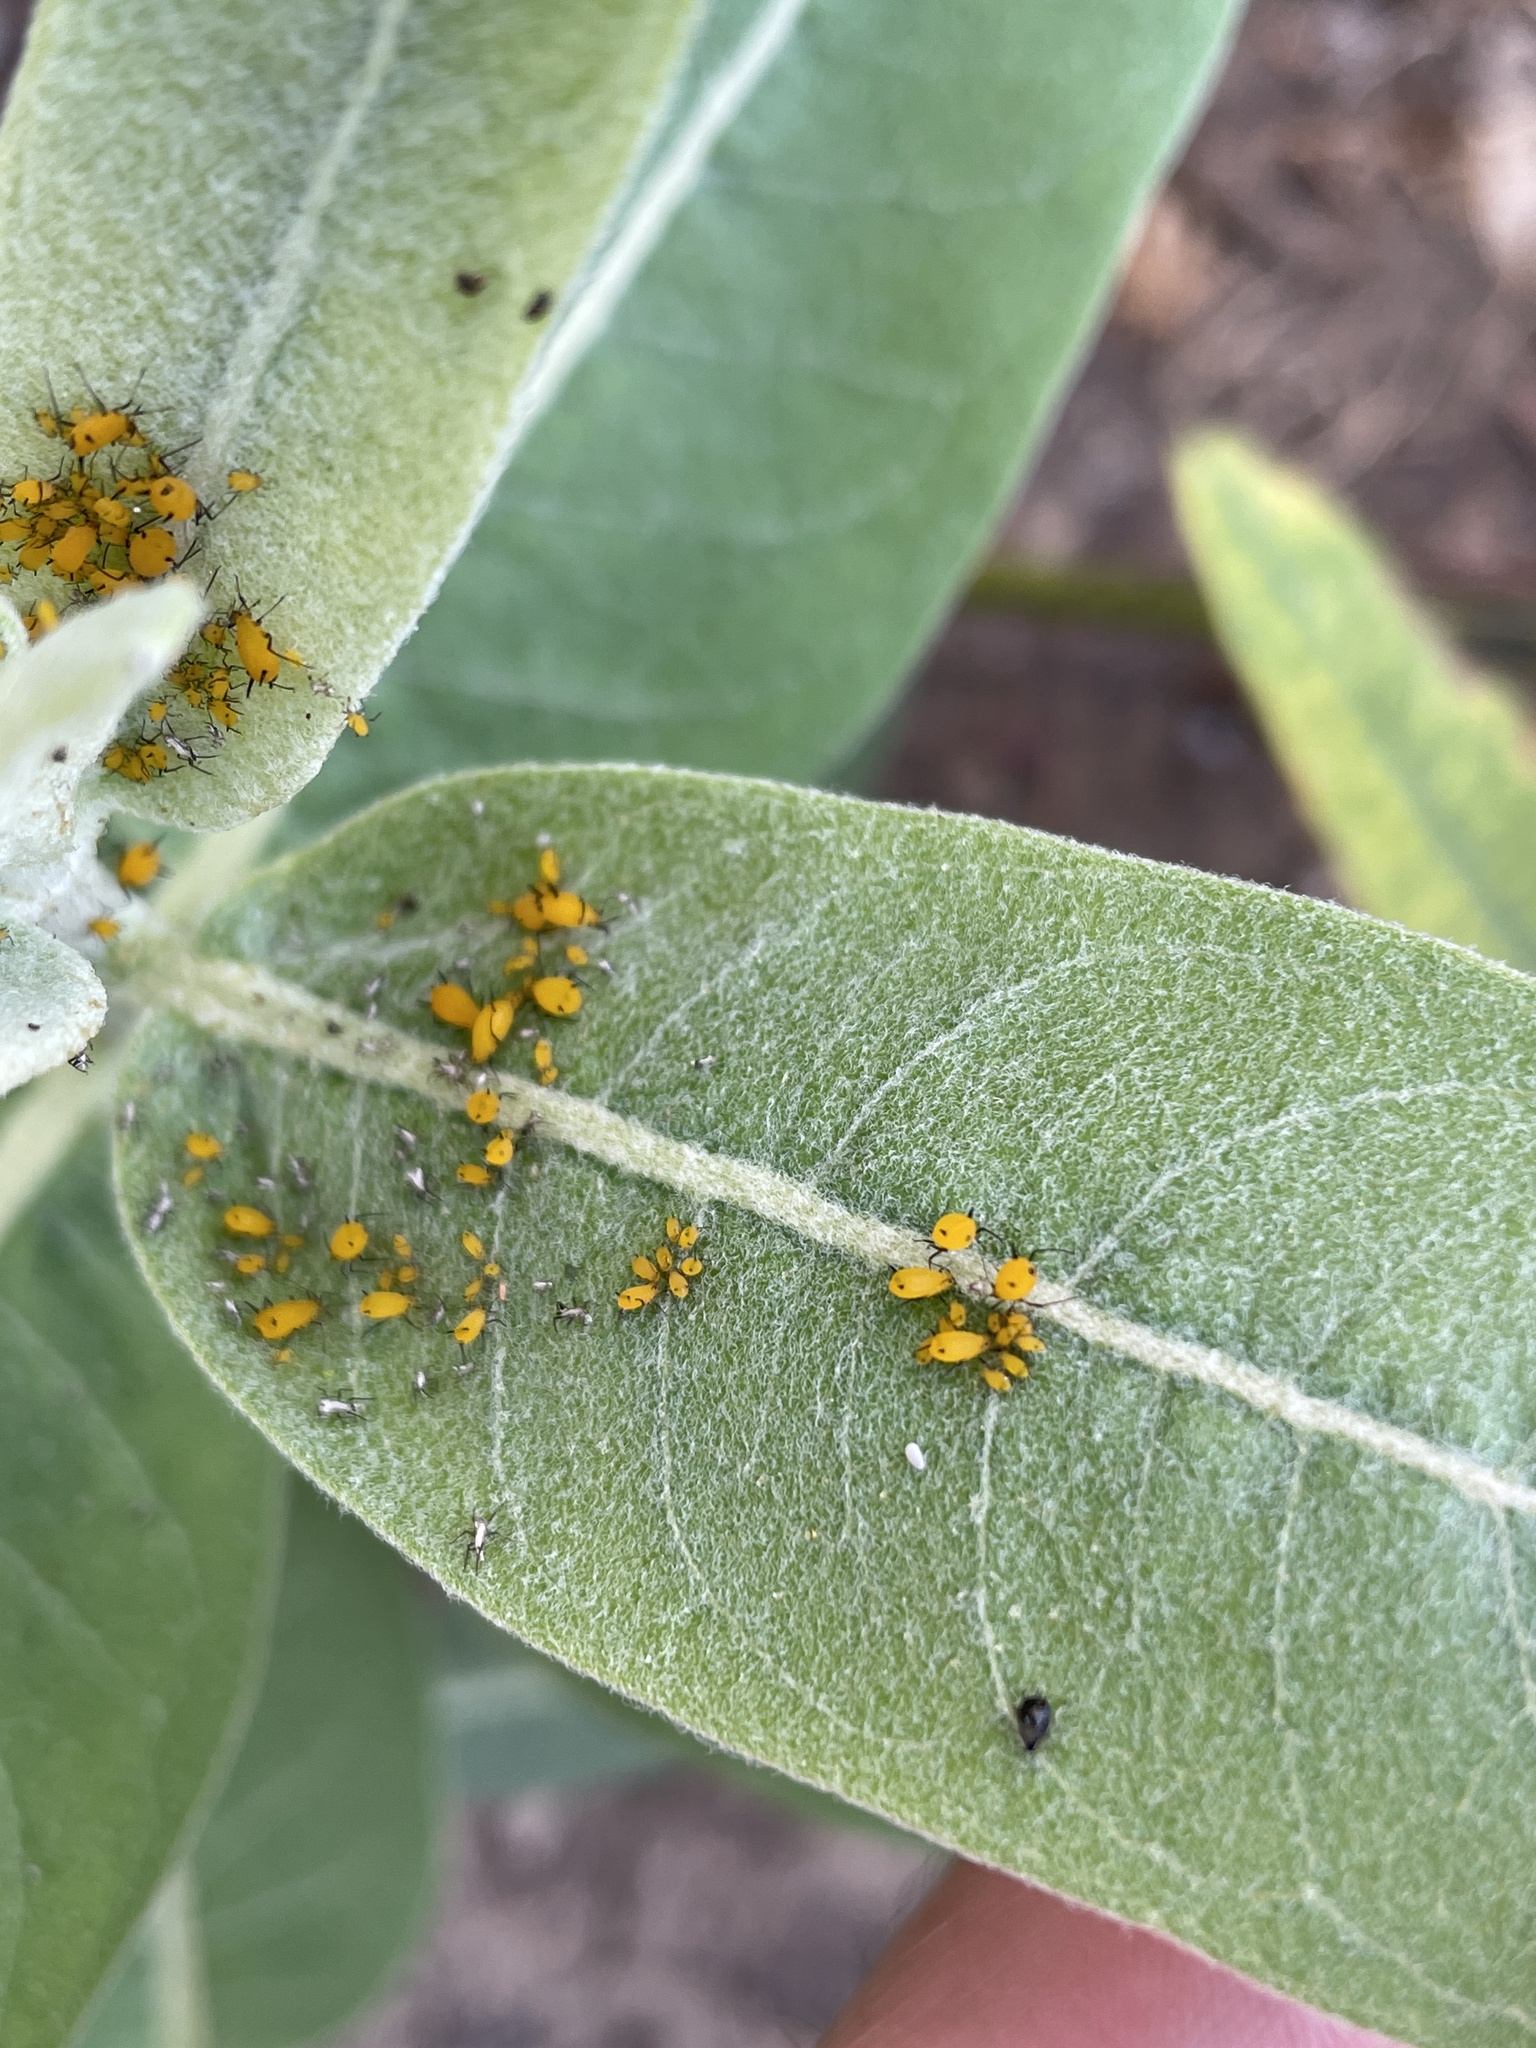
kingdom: Animalia
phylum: Arthropoda
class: Insecta
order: Hemiptera
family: Aphididae
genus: Aphis
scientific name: Aphis nerii
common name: Oleander aphid
